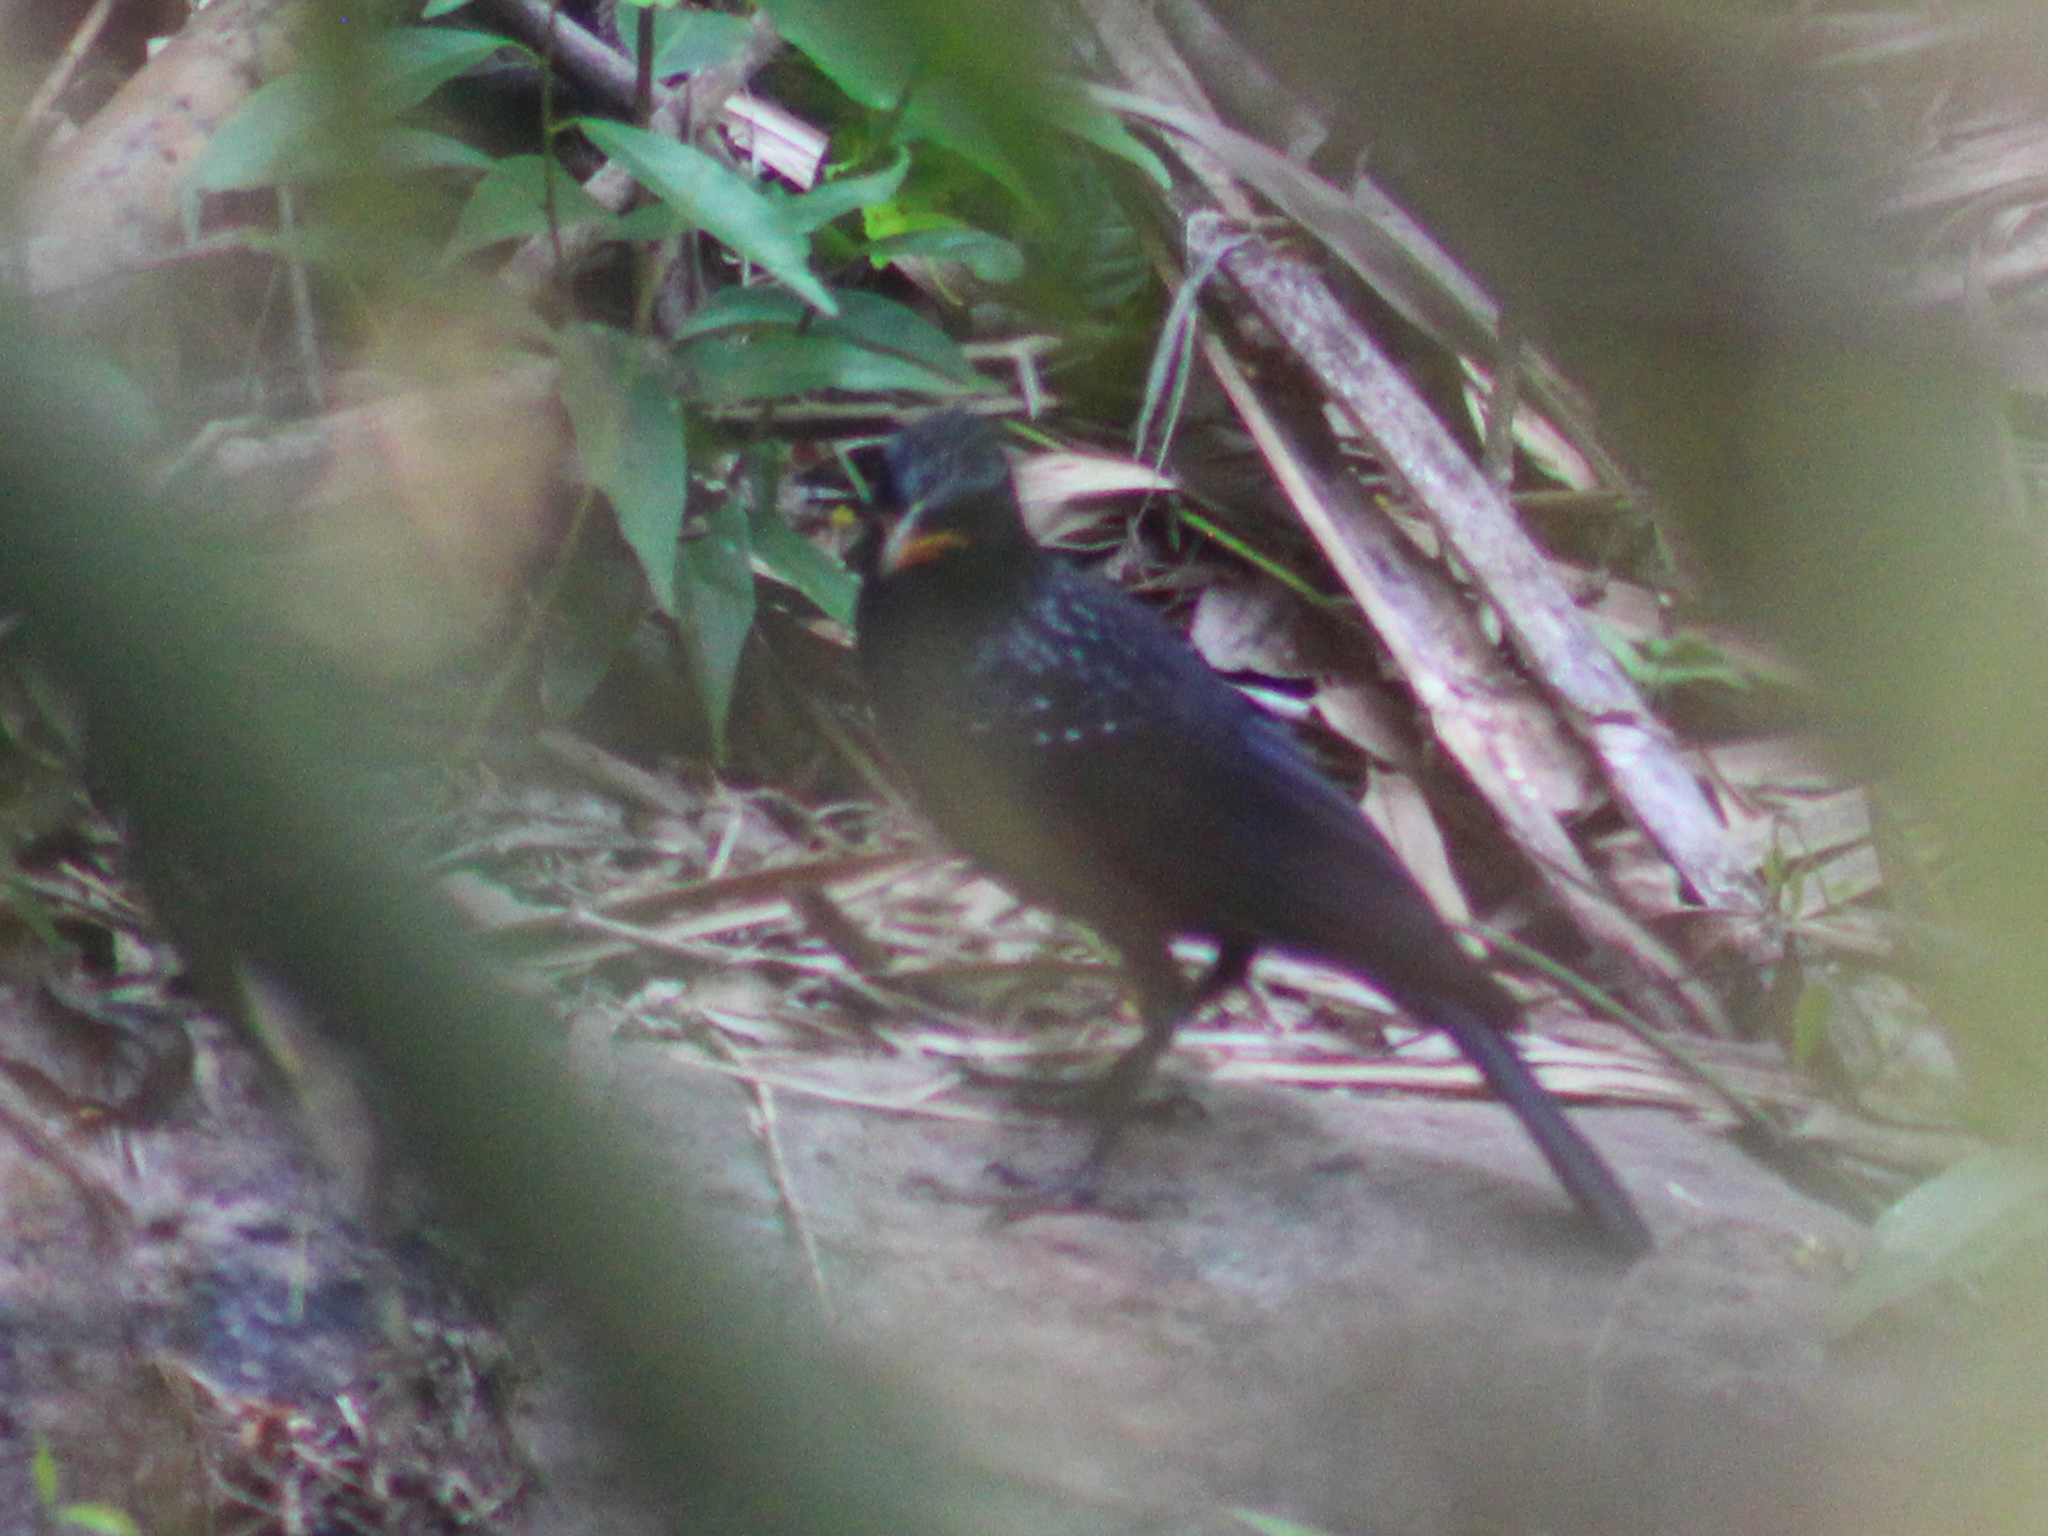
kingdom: Animalia
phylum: Chordata
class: Aves
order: Passeriformes
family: Muscicapidae
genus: Myophonus
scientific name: Myophonus caeruleus
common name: Blue whistling-thrush
